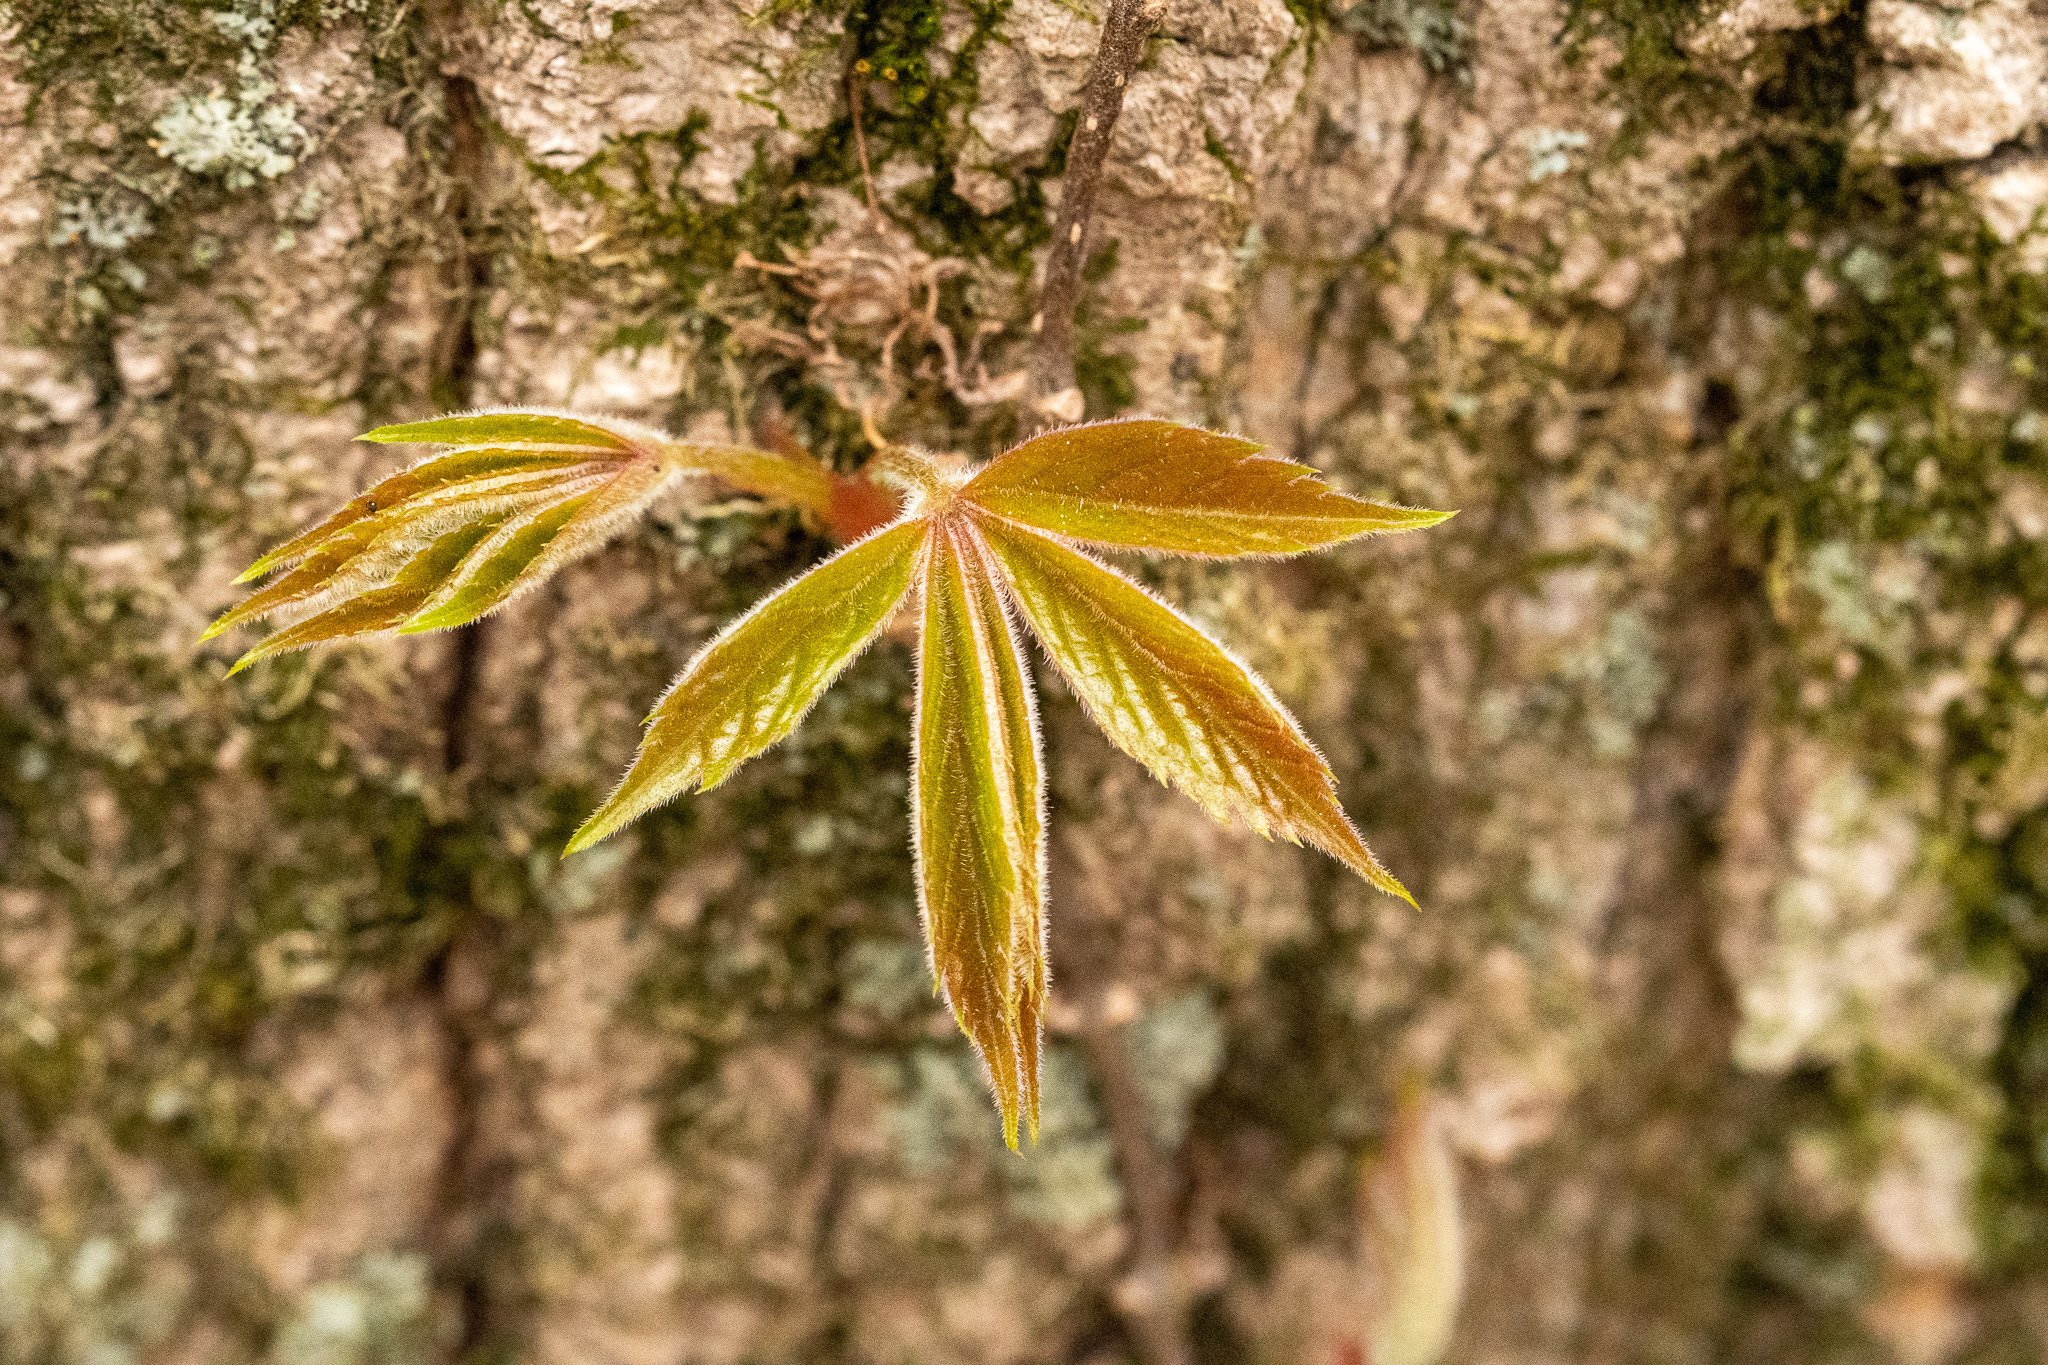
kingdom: Plantae
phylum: Tracheophyta
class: Magnoliopsida
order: Vitales
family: Vitaceae
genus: Parthenocissus
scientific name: Parthenocissus quinquefolia
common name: Virginia-creeper
